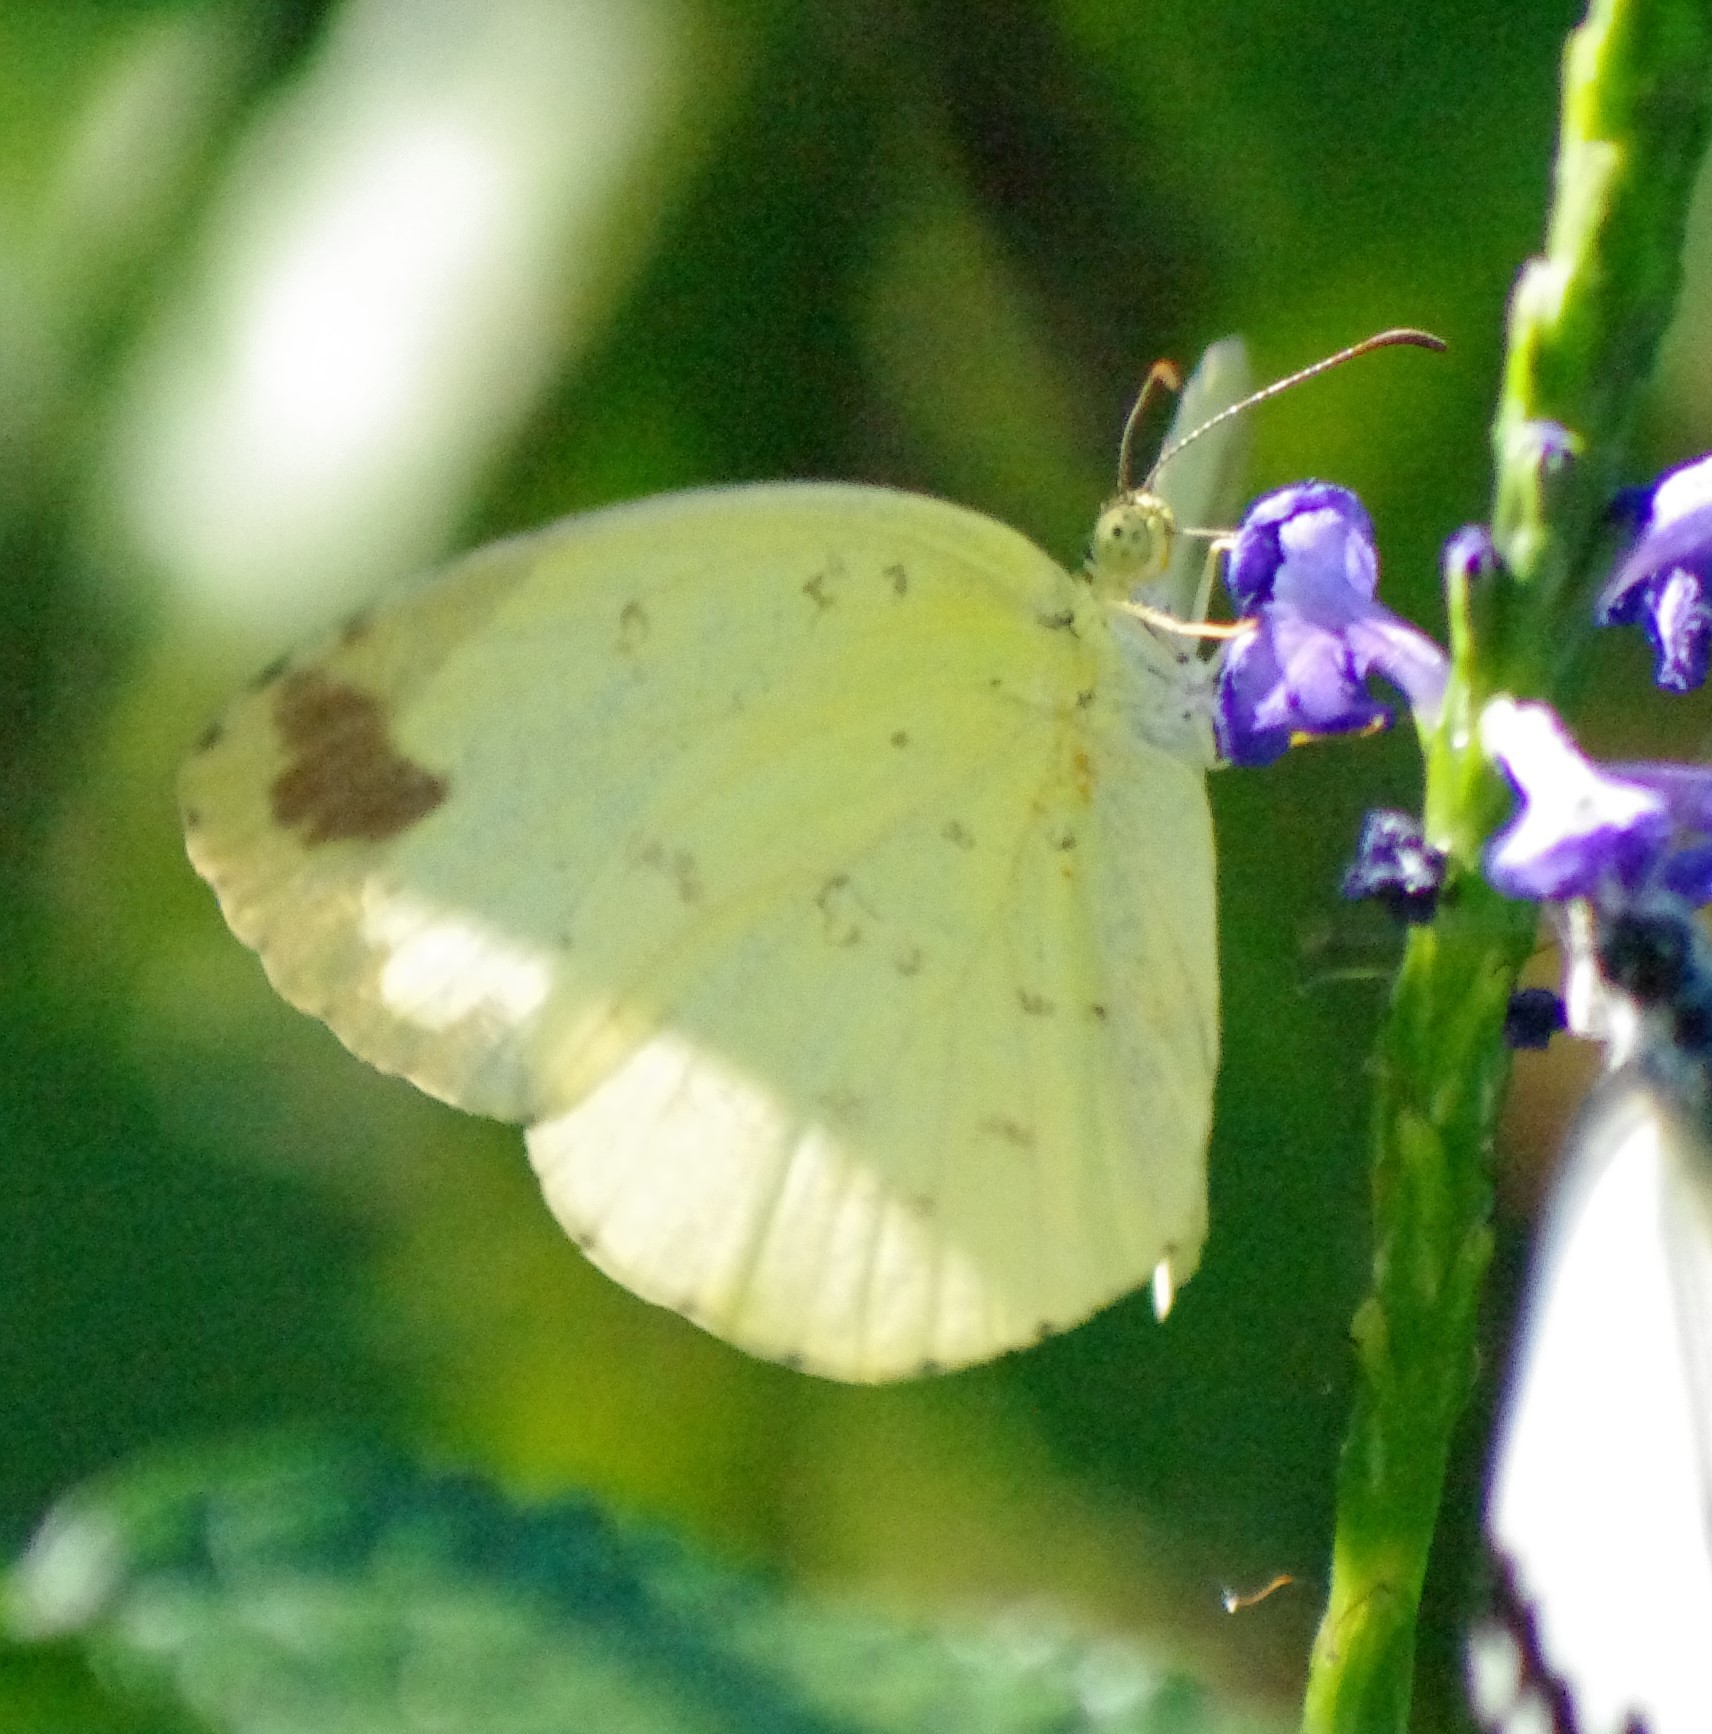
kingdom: Animalia
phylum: Arthropoda
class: Insecta
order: Lepidoptera
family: Pieridae
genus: Eurema
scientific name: Eurema hecabe
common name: Pale grass yellow
